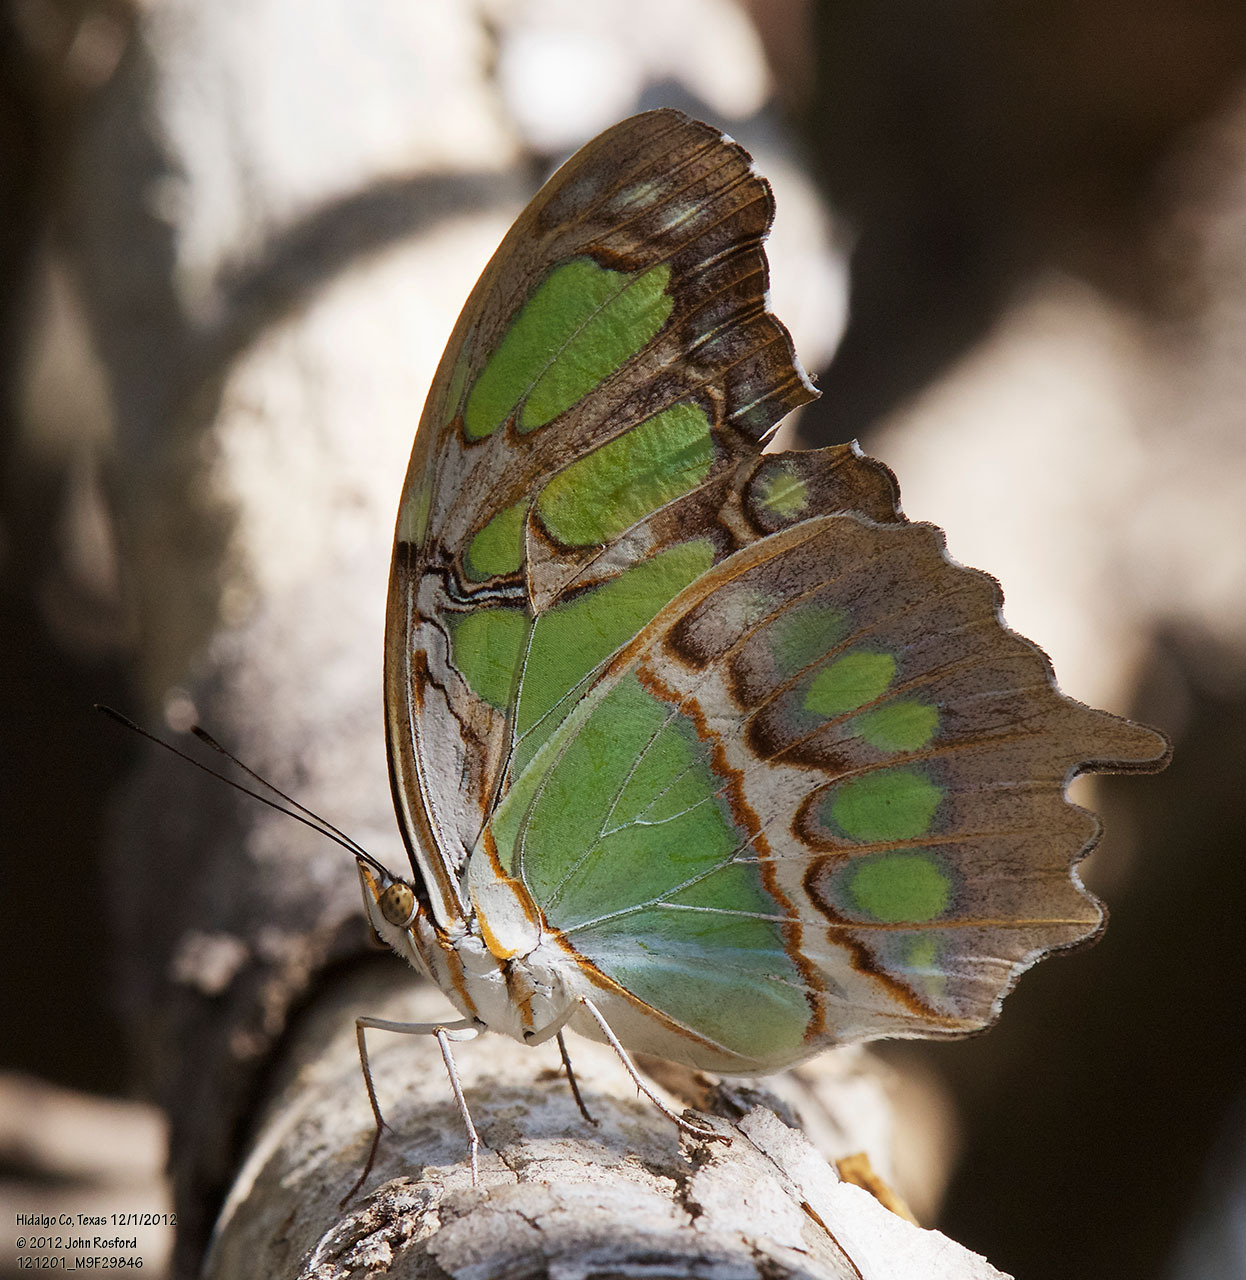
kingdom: Animalia
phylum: Arthropoda
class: Insecta
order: Lepidoptera
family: Nymphalidae
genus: Siproeta
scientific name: Siproeta stelenes
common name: Malachite
